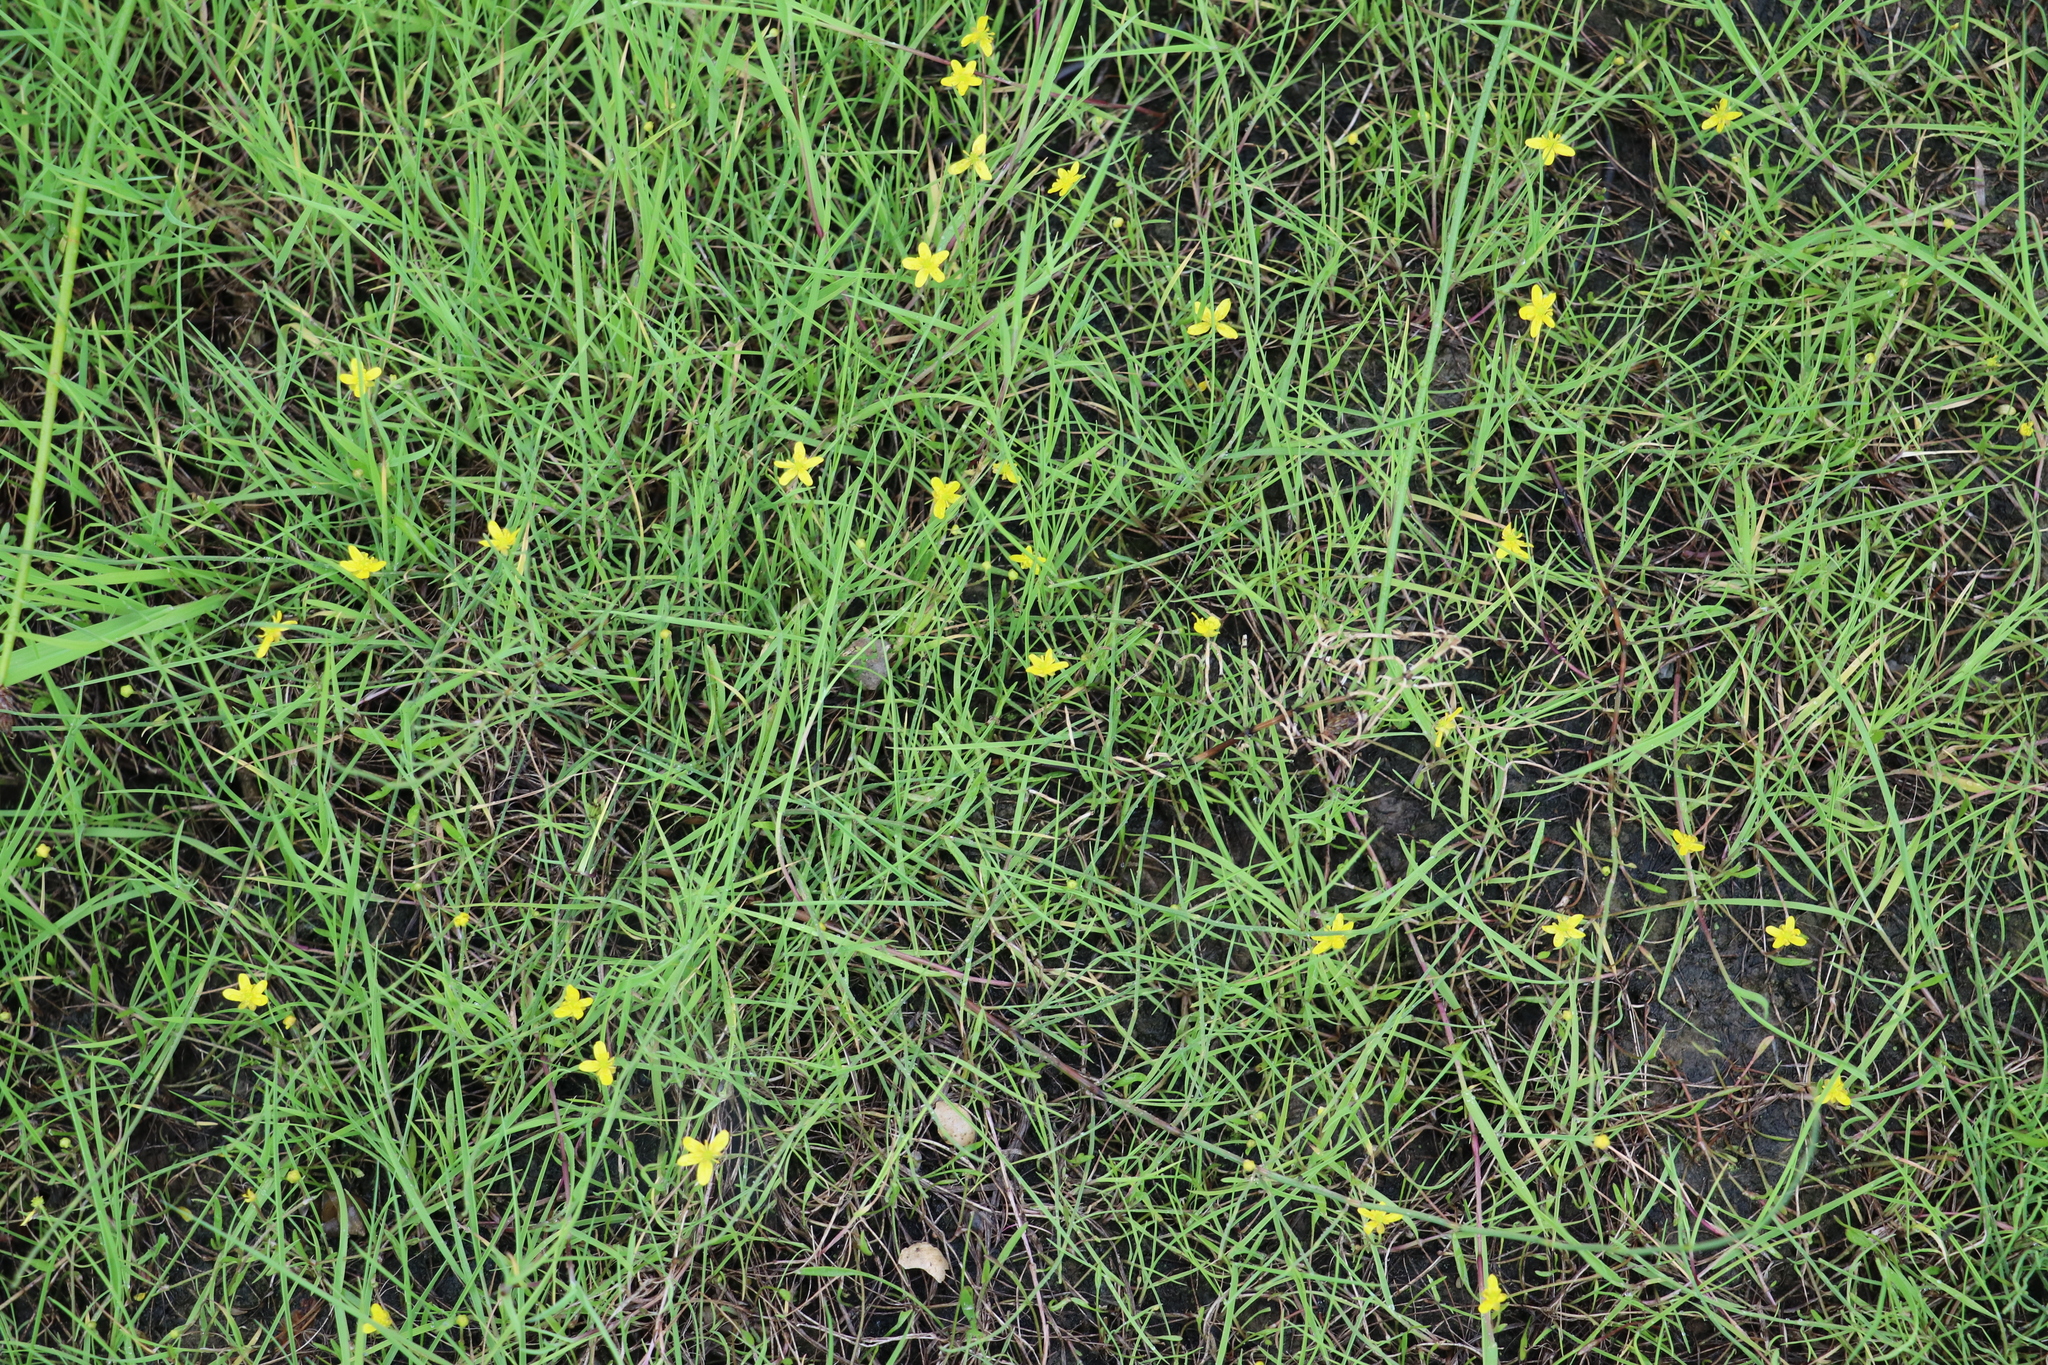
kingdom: Plantae
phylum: Tracheophyta
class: Magnoliopsida
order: Ranunculales
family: Ranunculaceae
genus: Ranunculus
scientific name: Ranunculus reptans
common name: Creeping spearwort
